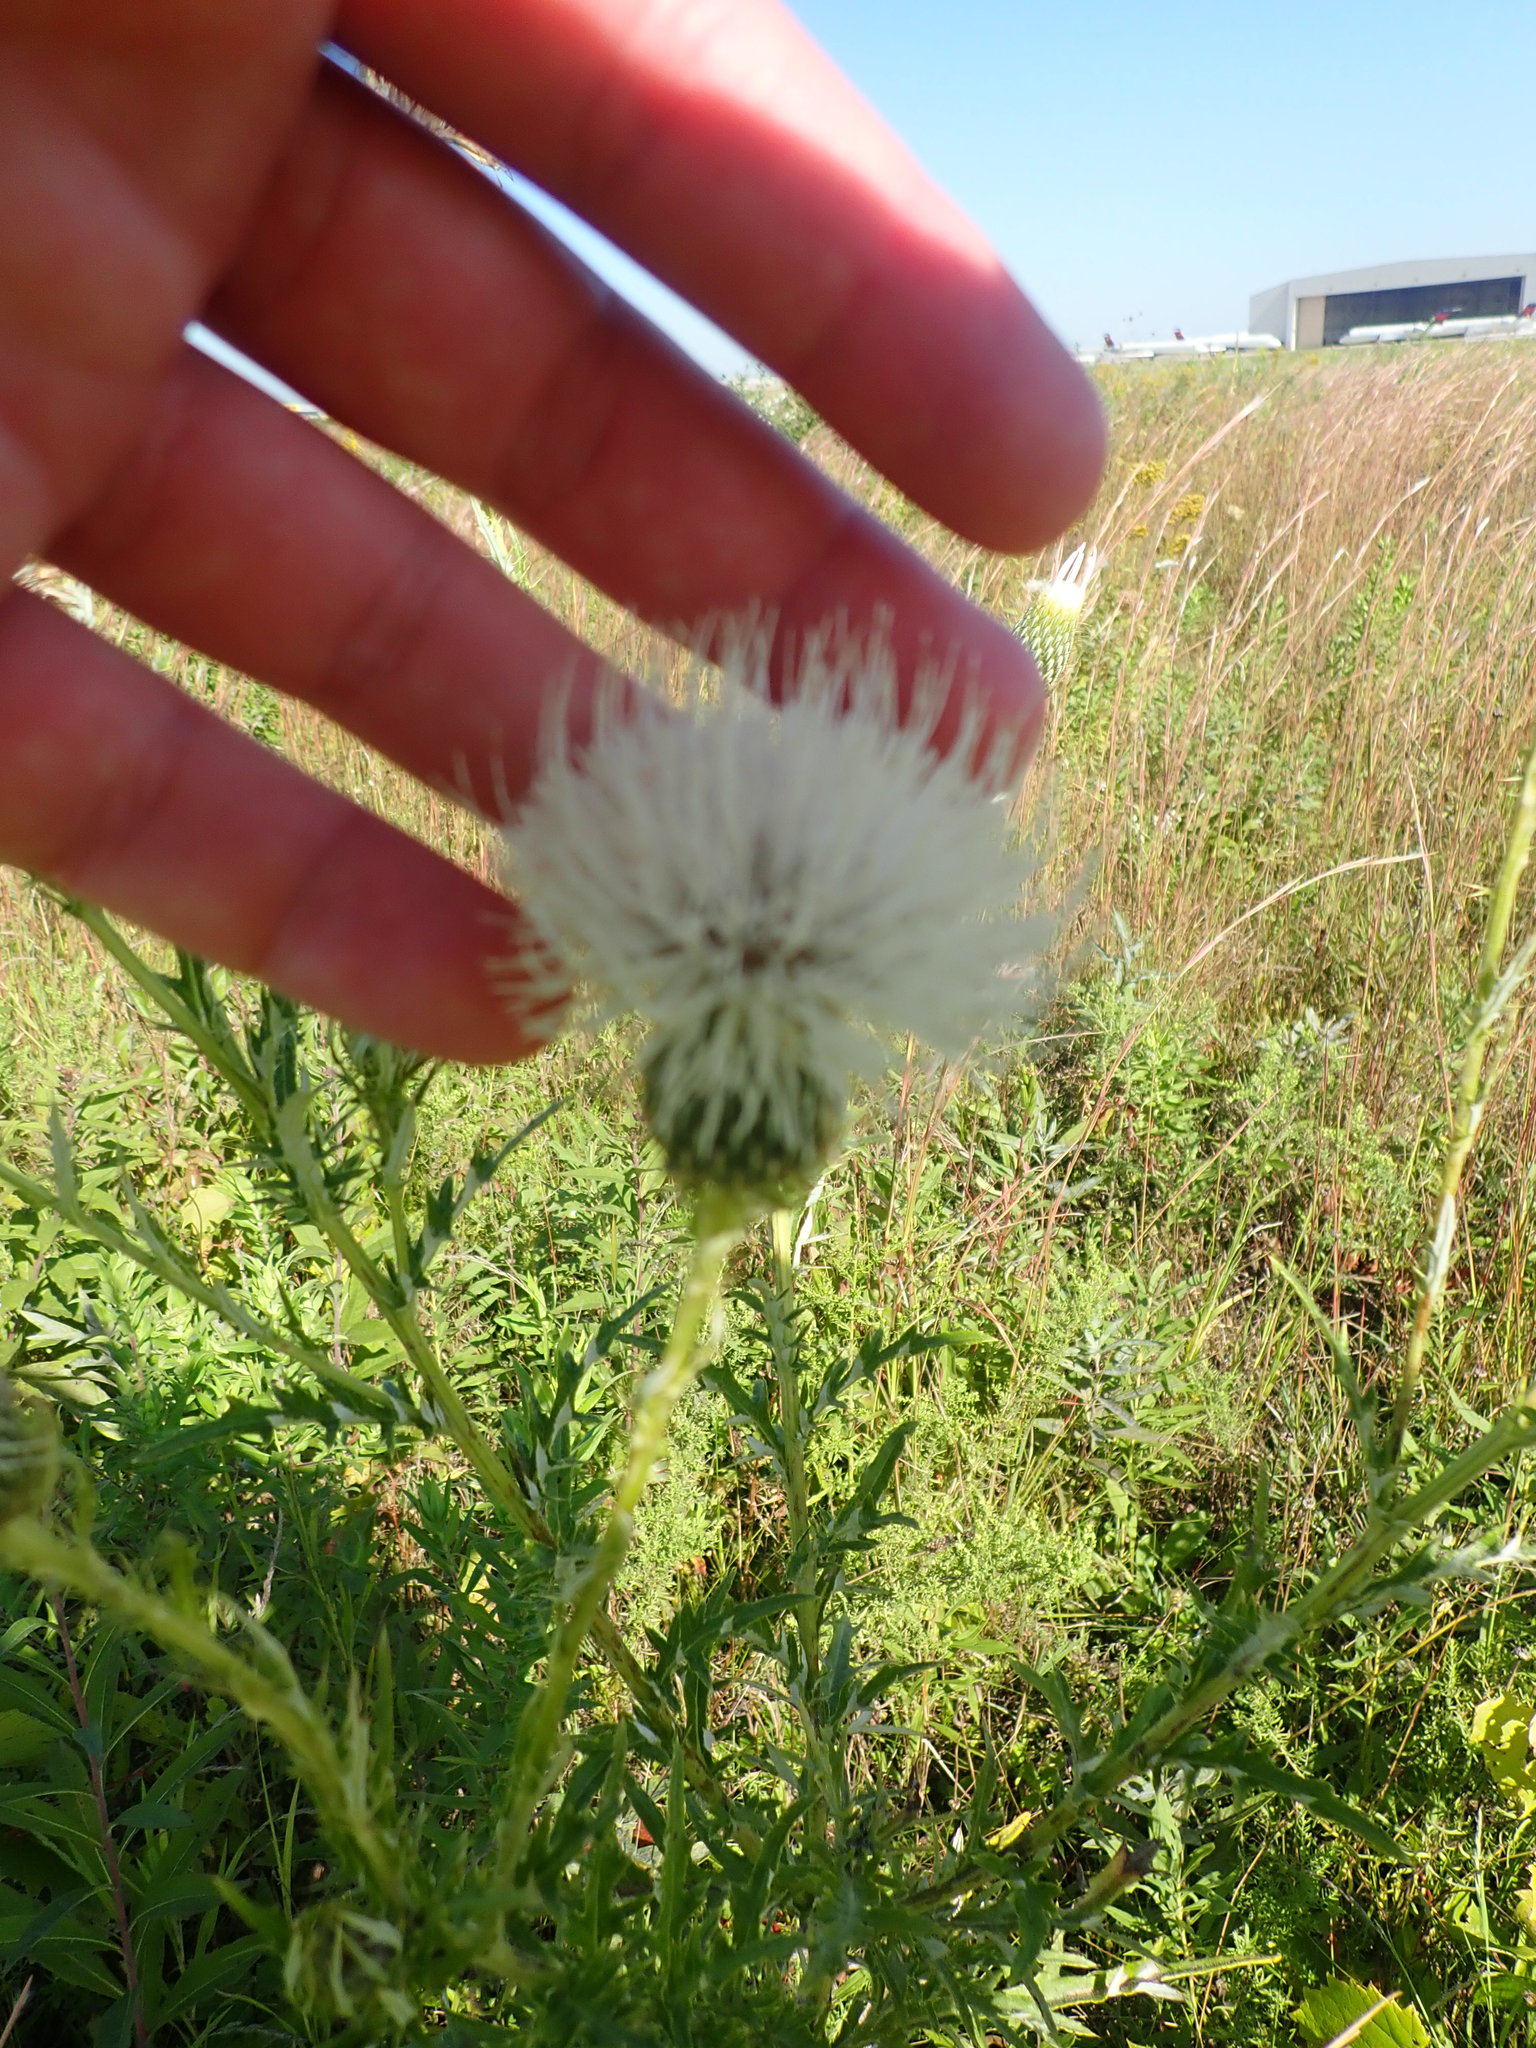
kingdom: Plantae
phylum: Tracheophyta
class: Magnoliopsida
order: Asterales
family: Asteraceae
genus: Cirsium
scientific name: Cirsium discolor
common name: Field thistle
